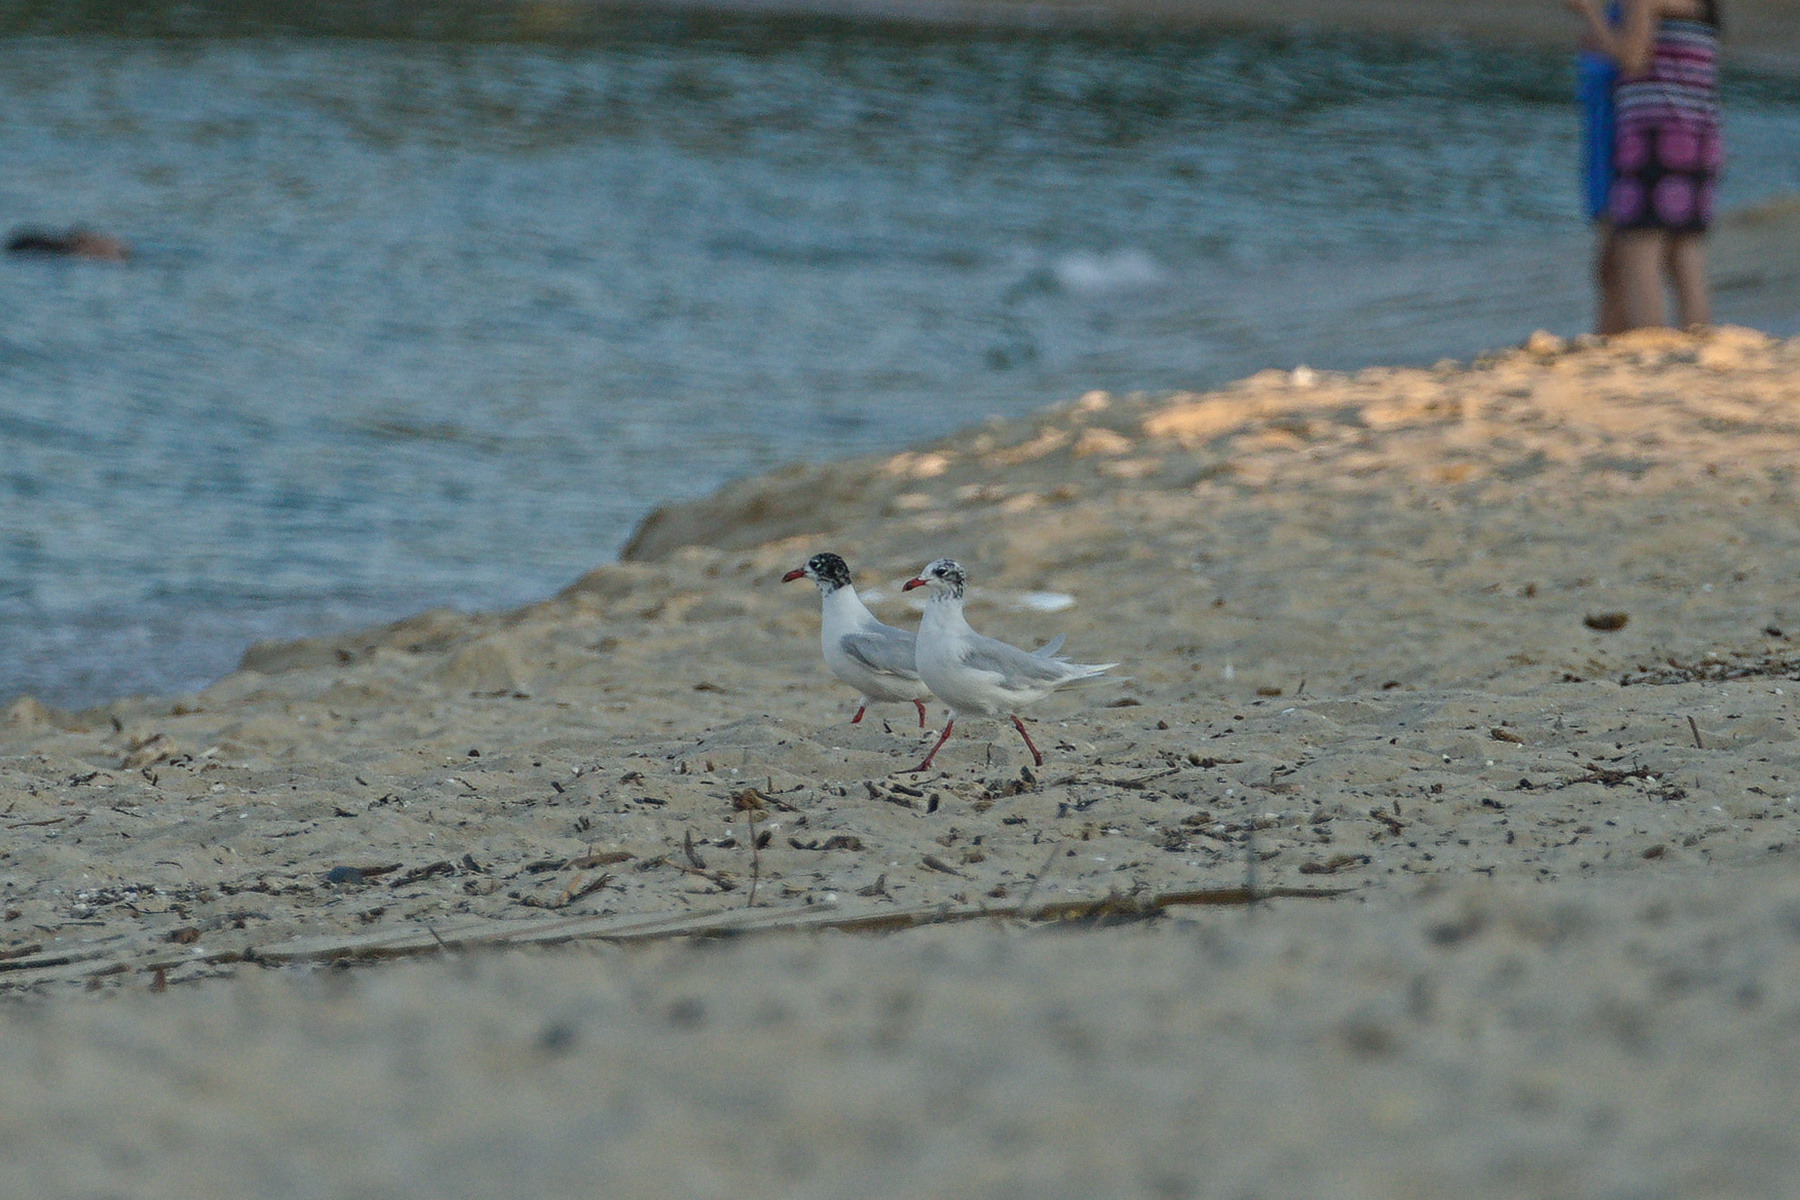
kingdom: Animalia
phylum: Chordata
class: Aves
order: Charadriiformes
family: Laridae
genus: Ichthyaetus
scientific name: Ichthyaetus melanocephalus
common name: Mediterranean gull
